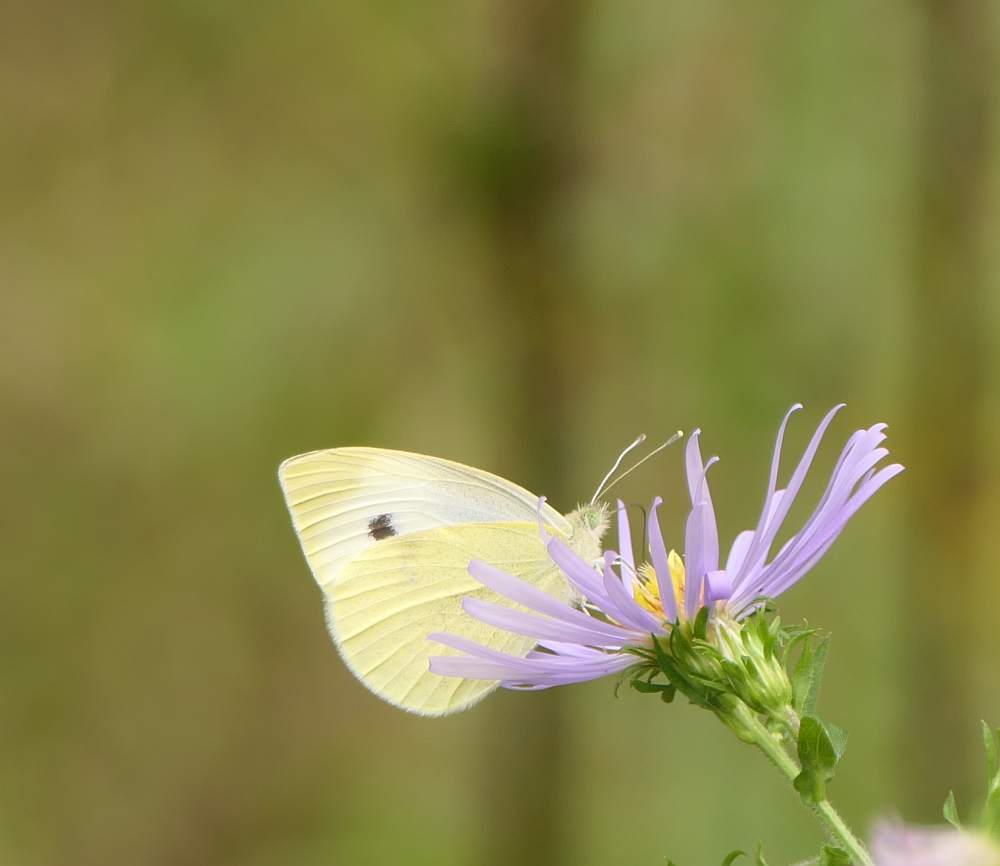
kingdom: Animalia
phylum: Arthropoda
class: Insecta
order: Lepidoptera
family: Pieridae
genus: Pieris
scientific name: Pieris rapae
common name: Small white
